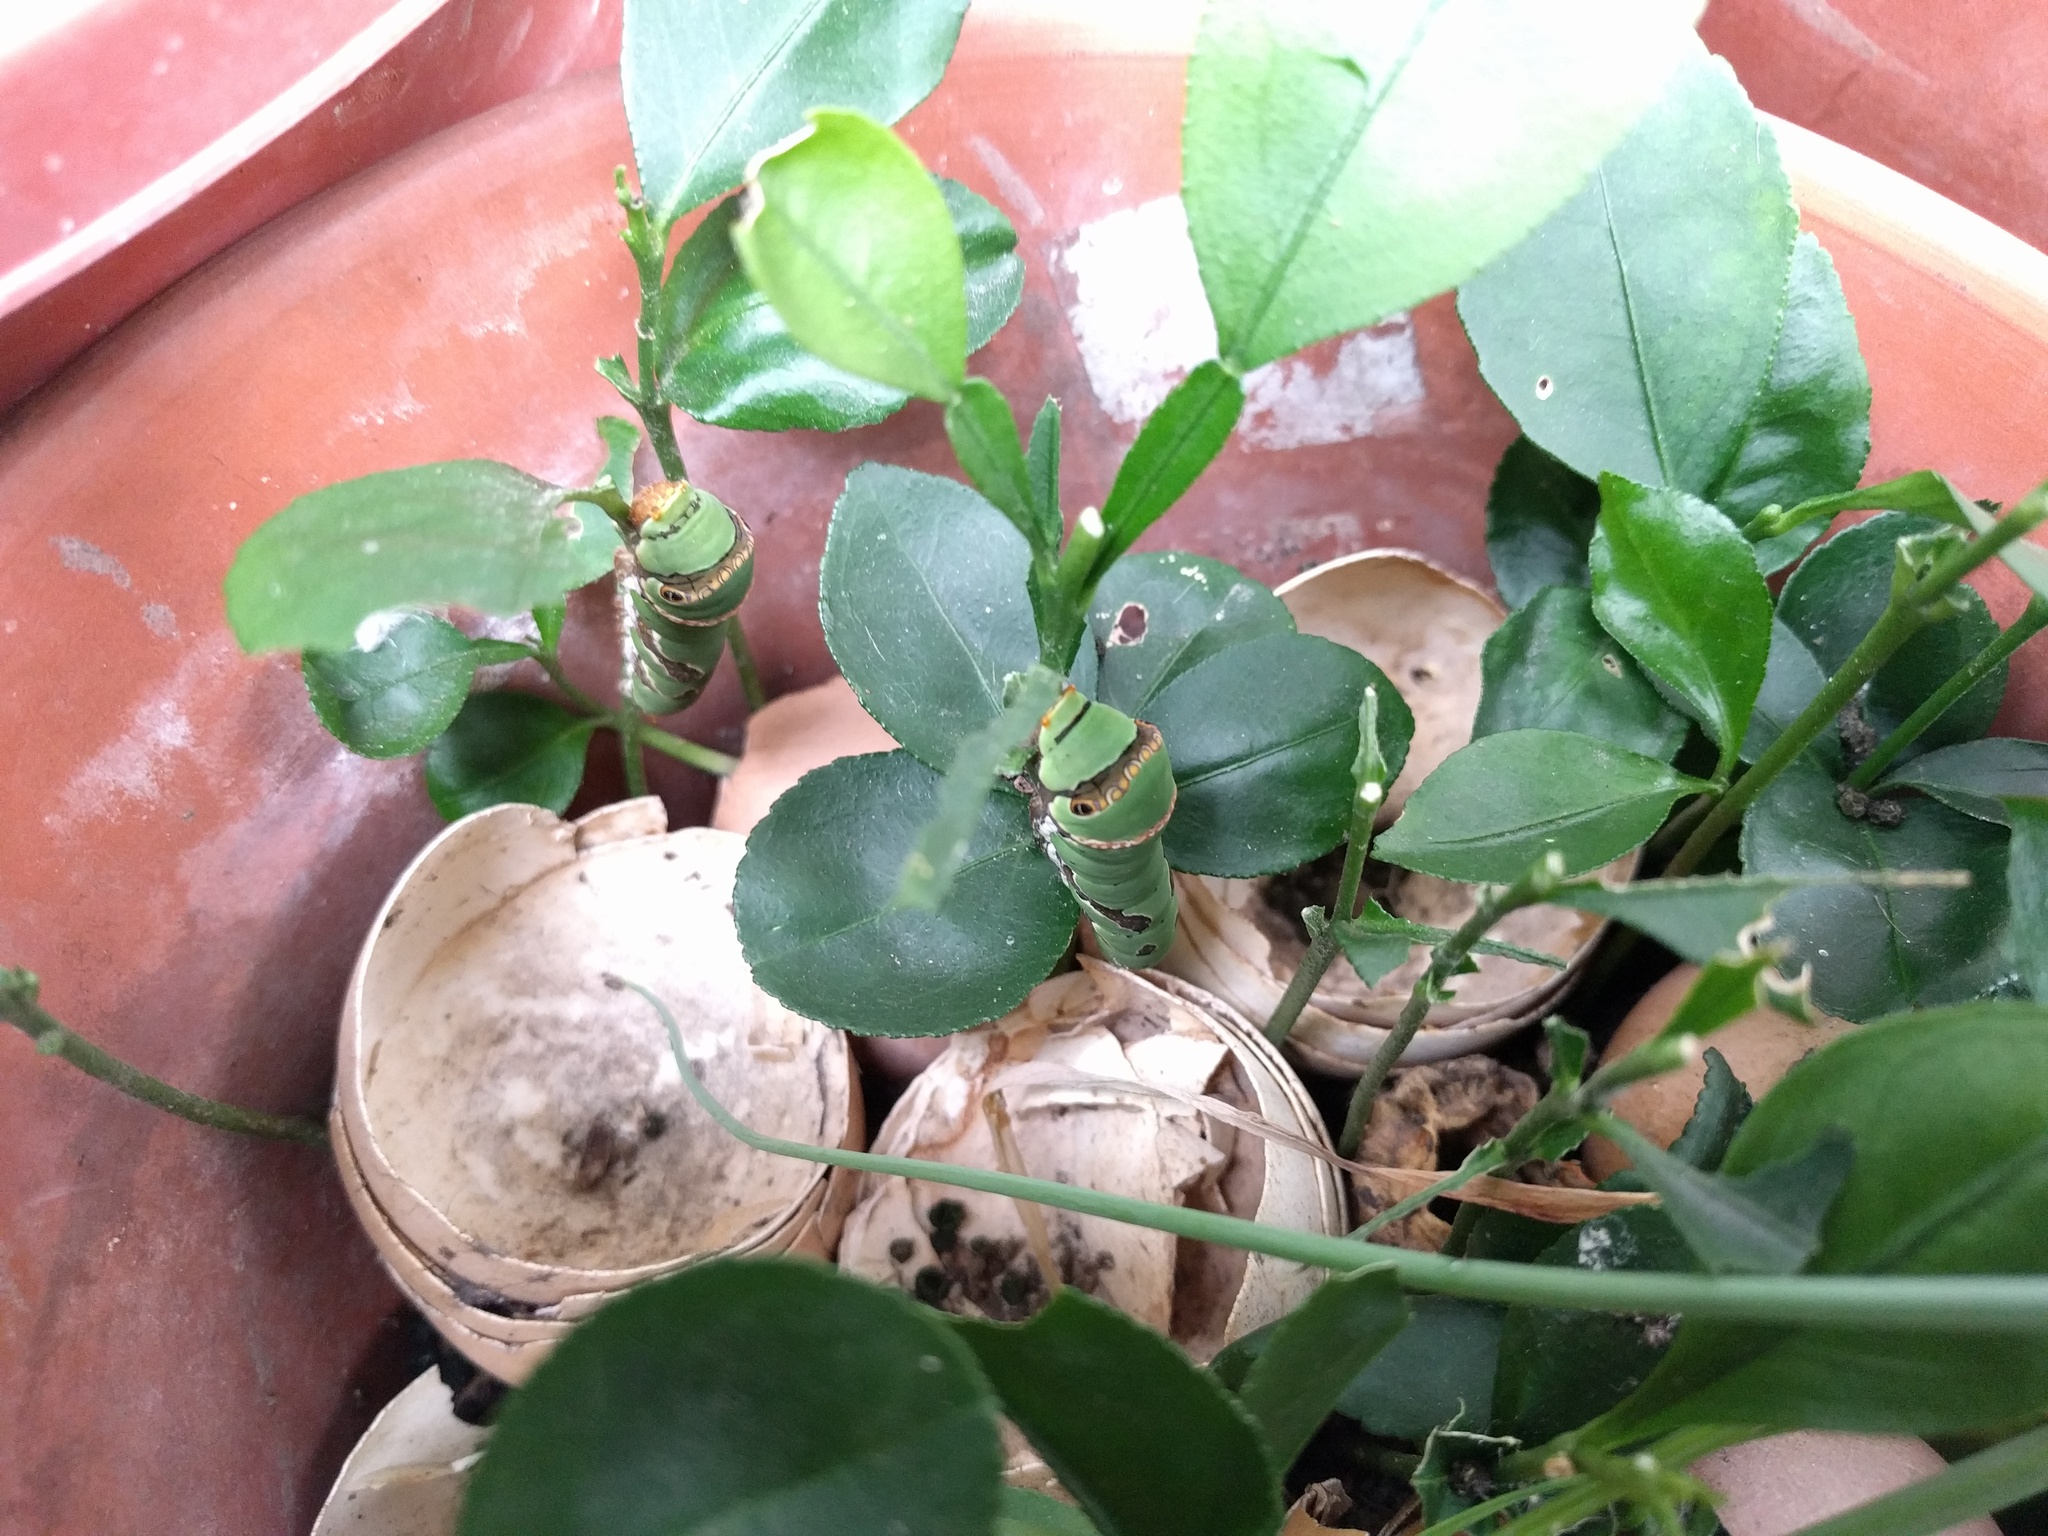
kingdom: Animalia
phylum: Arthropoda
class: Insecta
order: Lepidoptera
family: Papilionidae
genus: Papilio
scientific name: Papilio demoleus
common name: Lime butterfly
